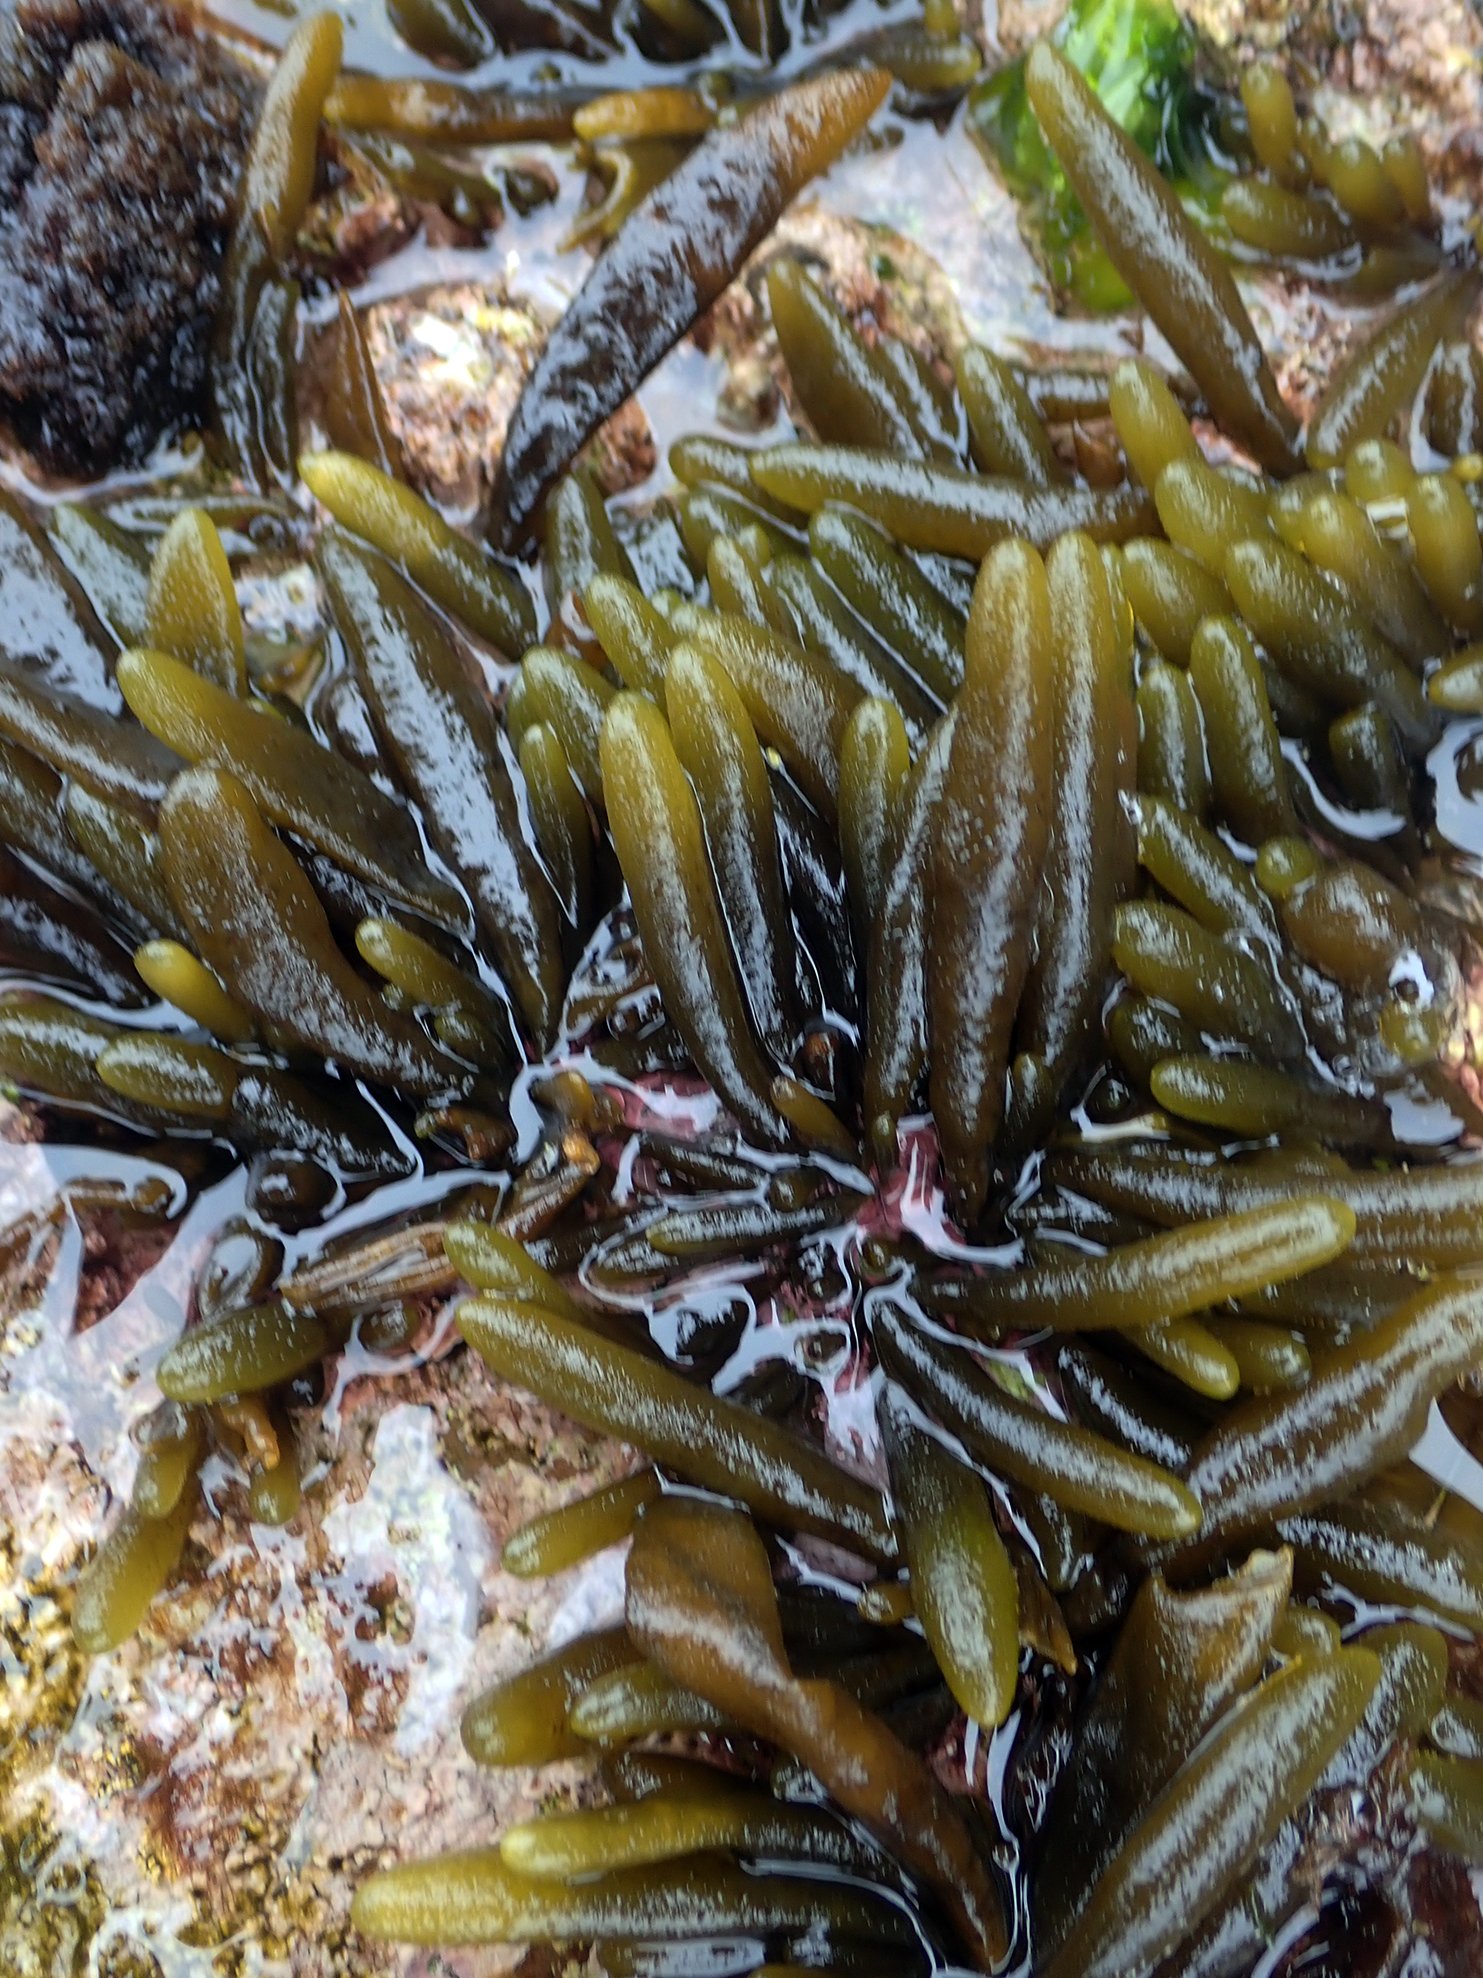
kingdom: Chromista
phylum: Ochrophyta
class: Phaeophyceae
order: Ectocarpales
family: Adenocystaceae
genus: Adenocystis
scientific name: Adenocystis utricularis
